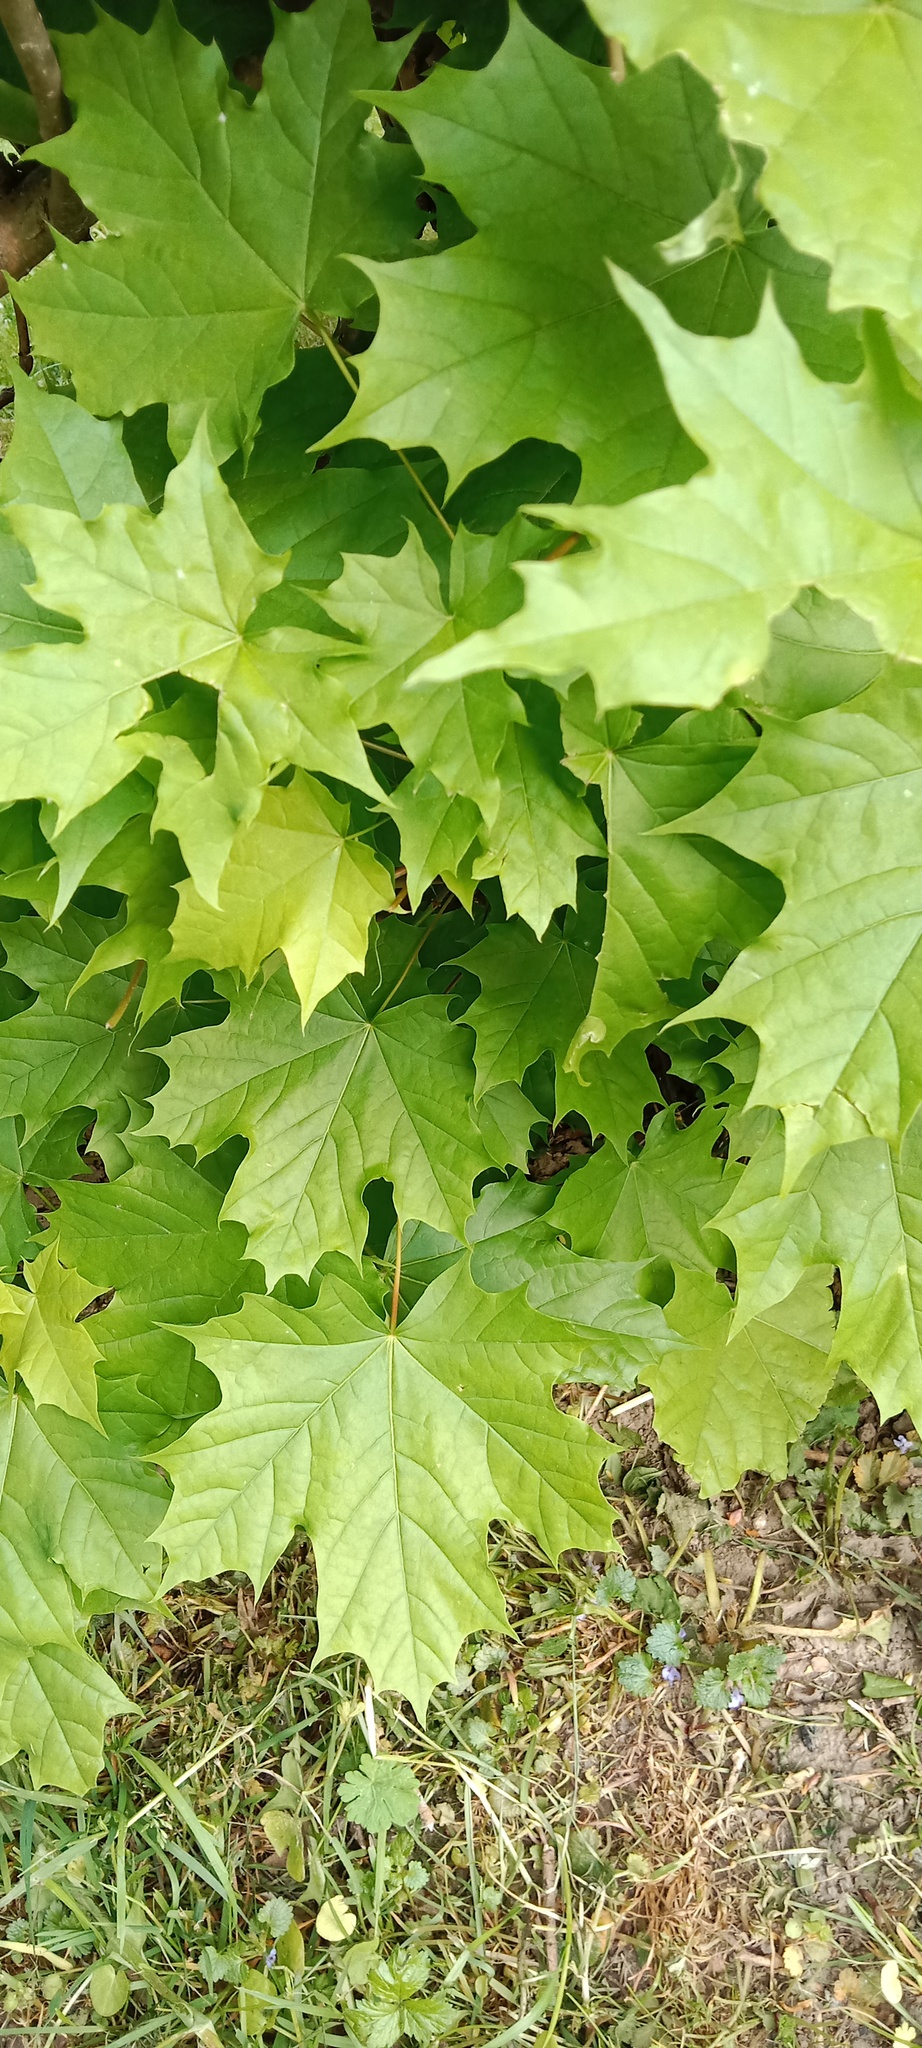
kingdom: Plantae
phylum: Tracheophyta
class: Magnoliopsida
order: Sapindales
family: Sapindaceae
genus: Acer
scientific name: Acer platanoides
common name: Norway maple
